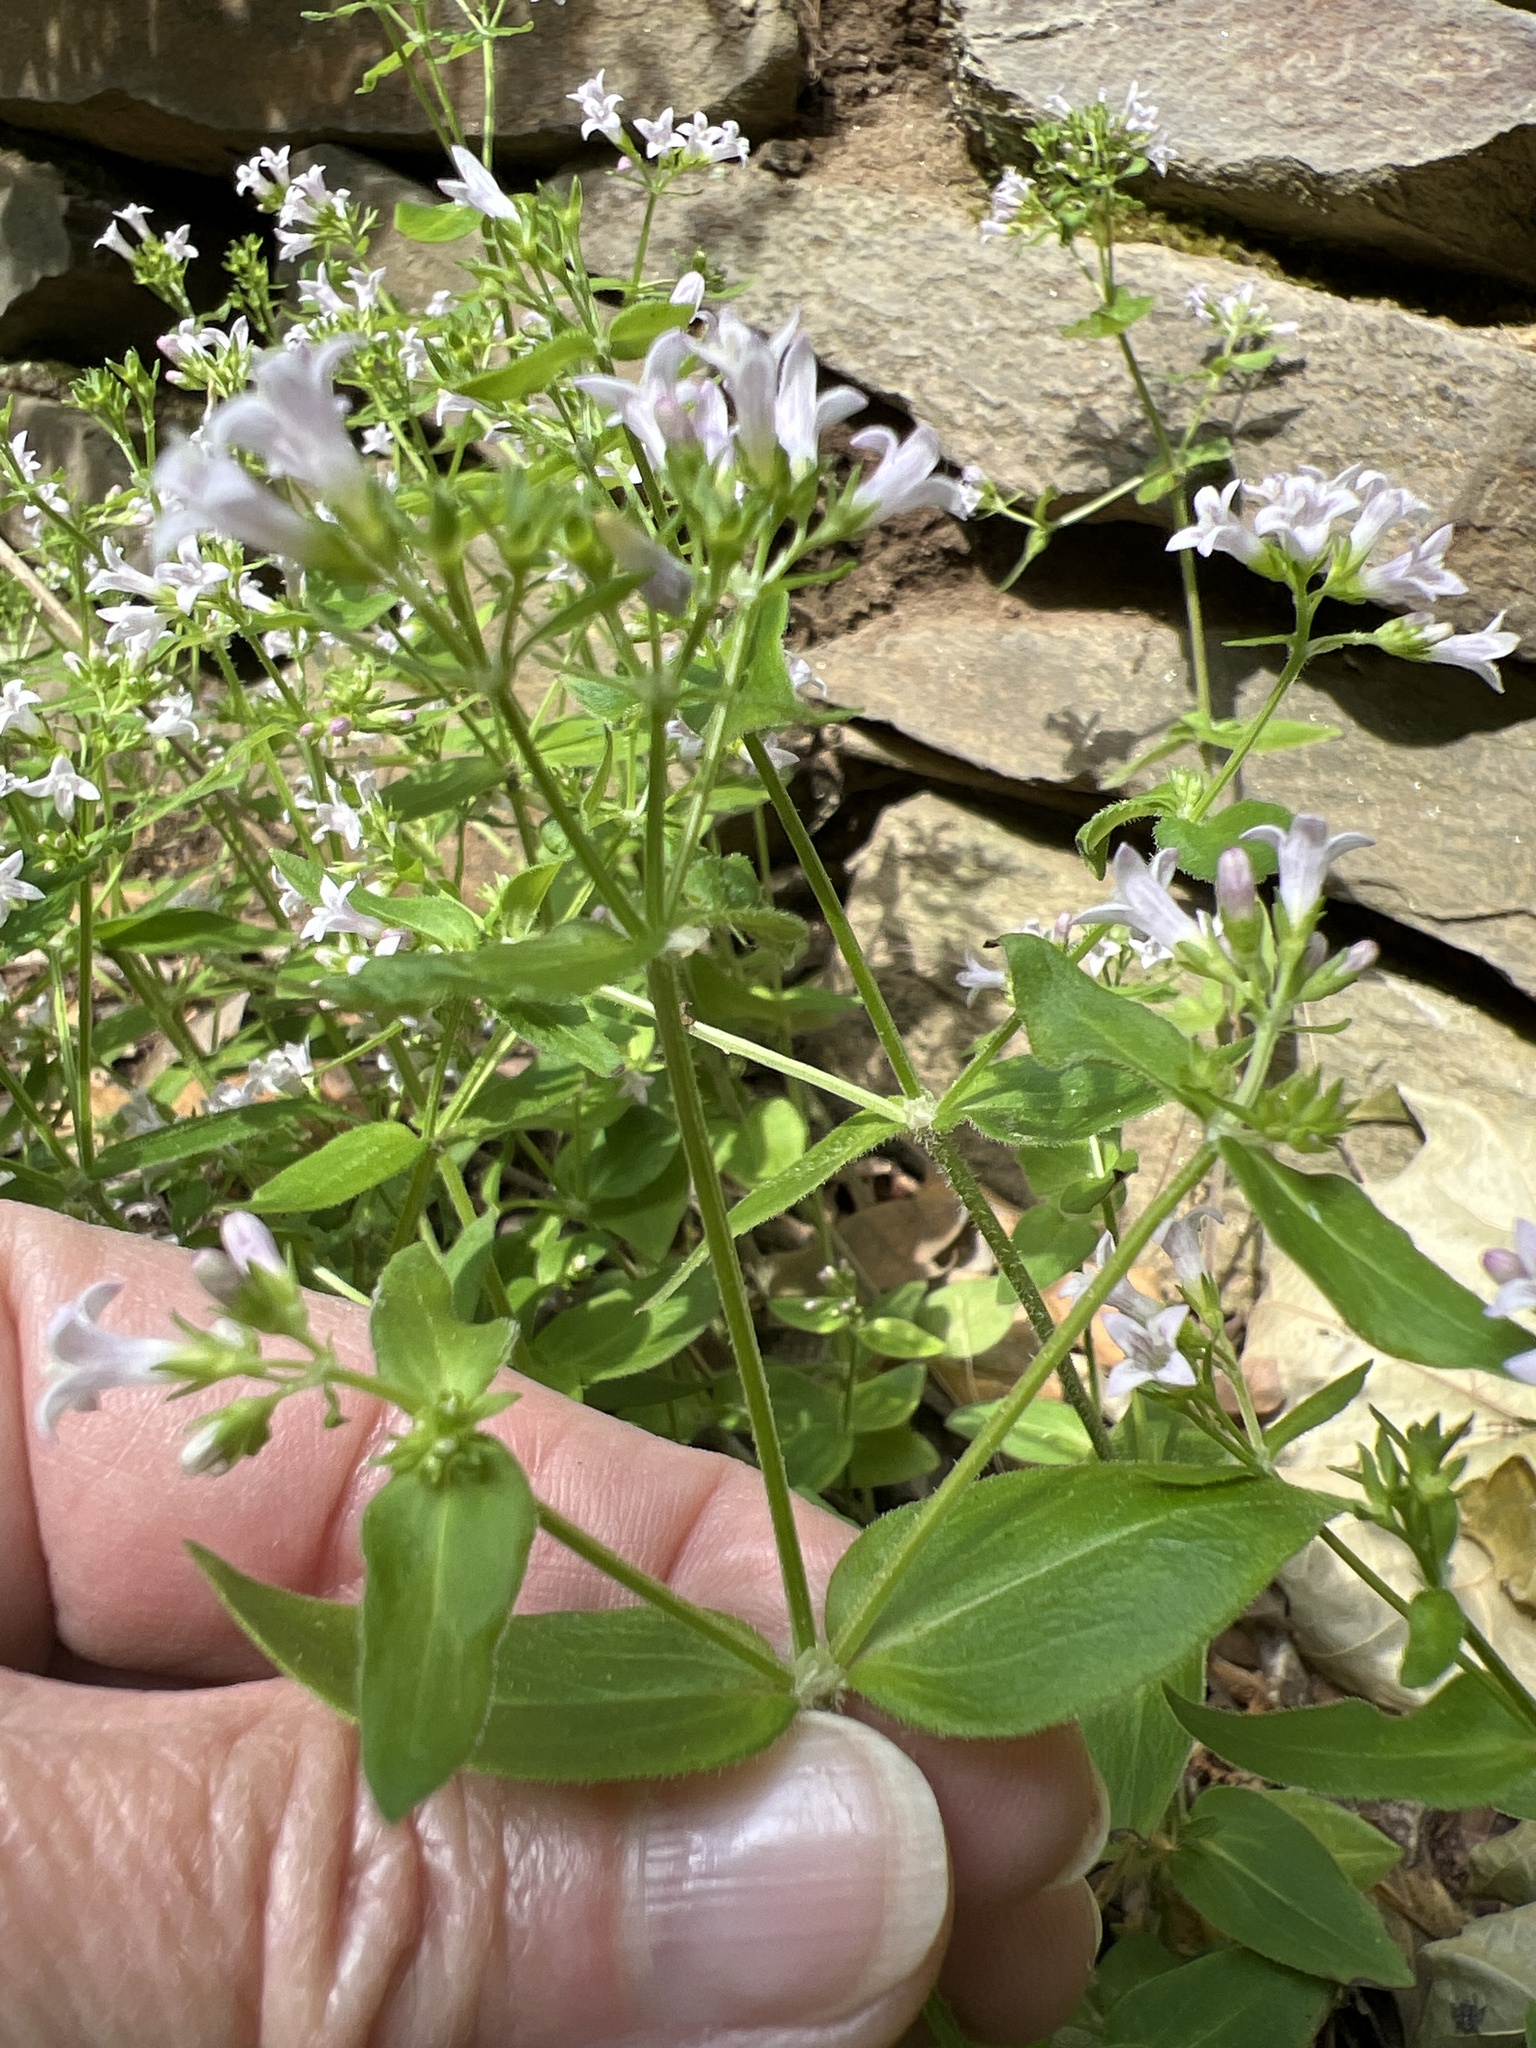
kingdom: Plantae
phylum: Tracheophyta
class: Magnoliopsida
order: Gentianales
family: Rubiaceae
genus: Houstonia
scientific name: Houstonia purpurea
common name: Summer bluet
